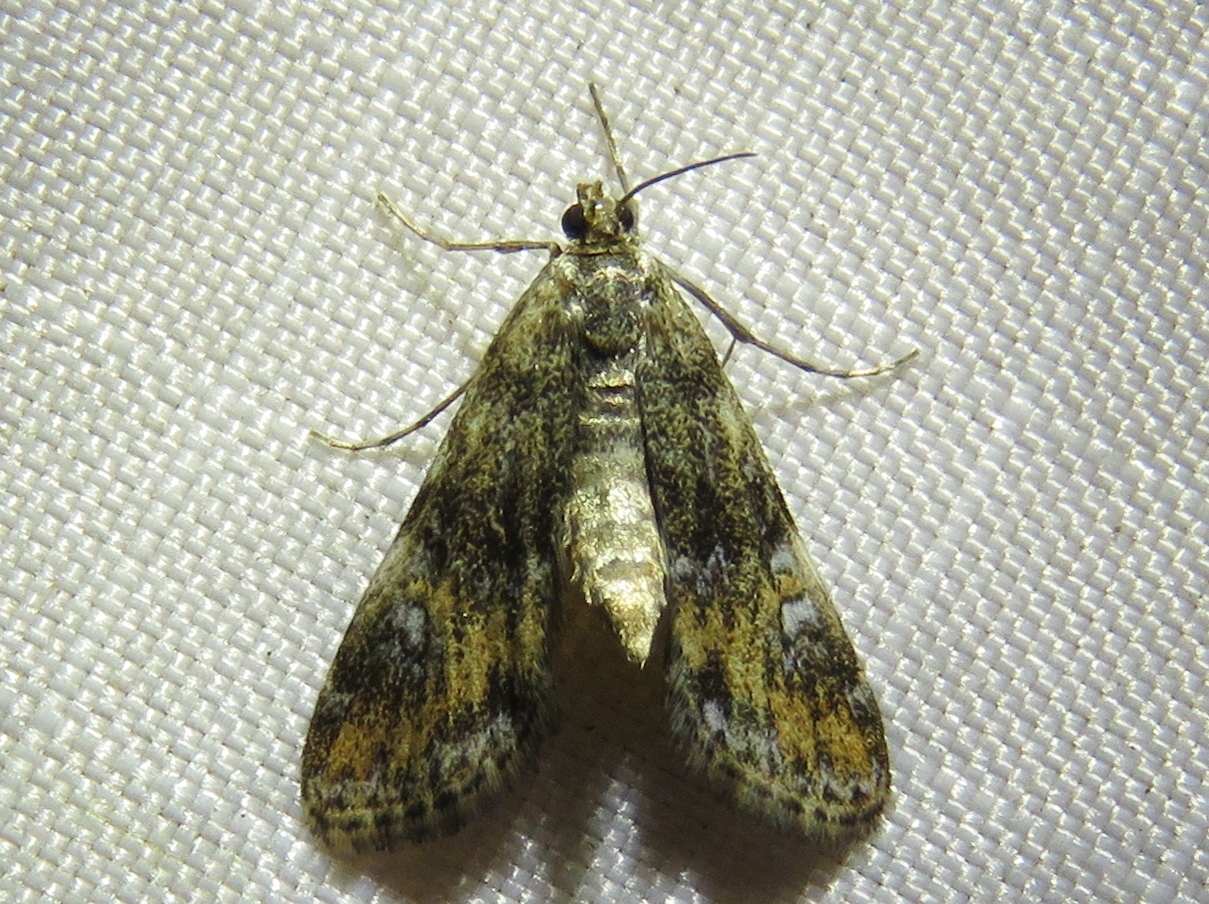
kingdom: Animalia
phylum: Arthropoda
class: Insecta
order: Lepidoptera
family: Crambidae
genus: Elophila
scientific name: Elophila obliteralis
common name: Waterlily leafcutter moth
